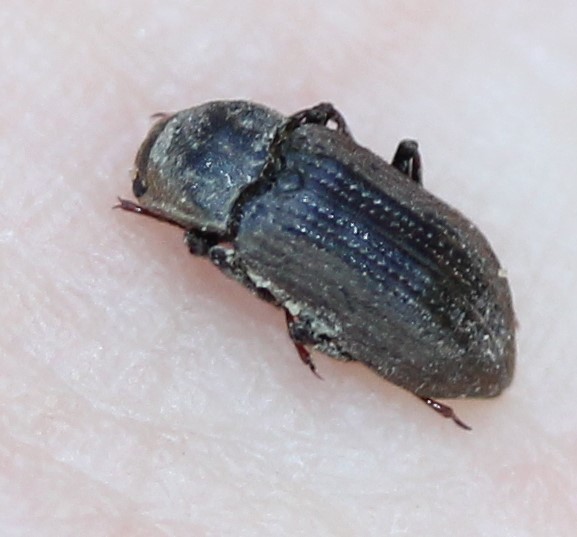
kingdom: Animalia
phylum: Arthropoda
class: Insecta
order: Coleoptera
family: Dryopidae
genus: Helichus
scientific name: Helichus
